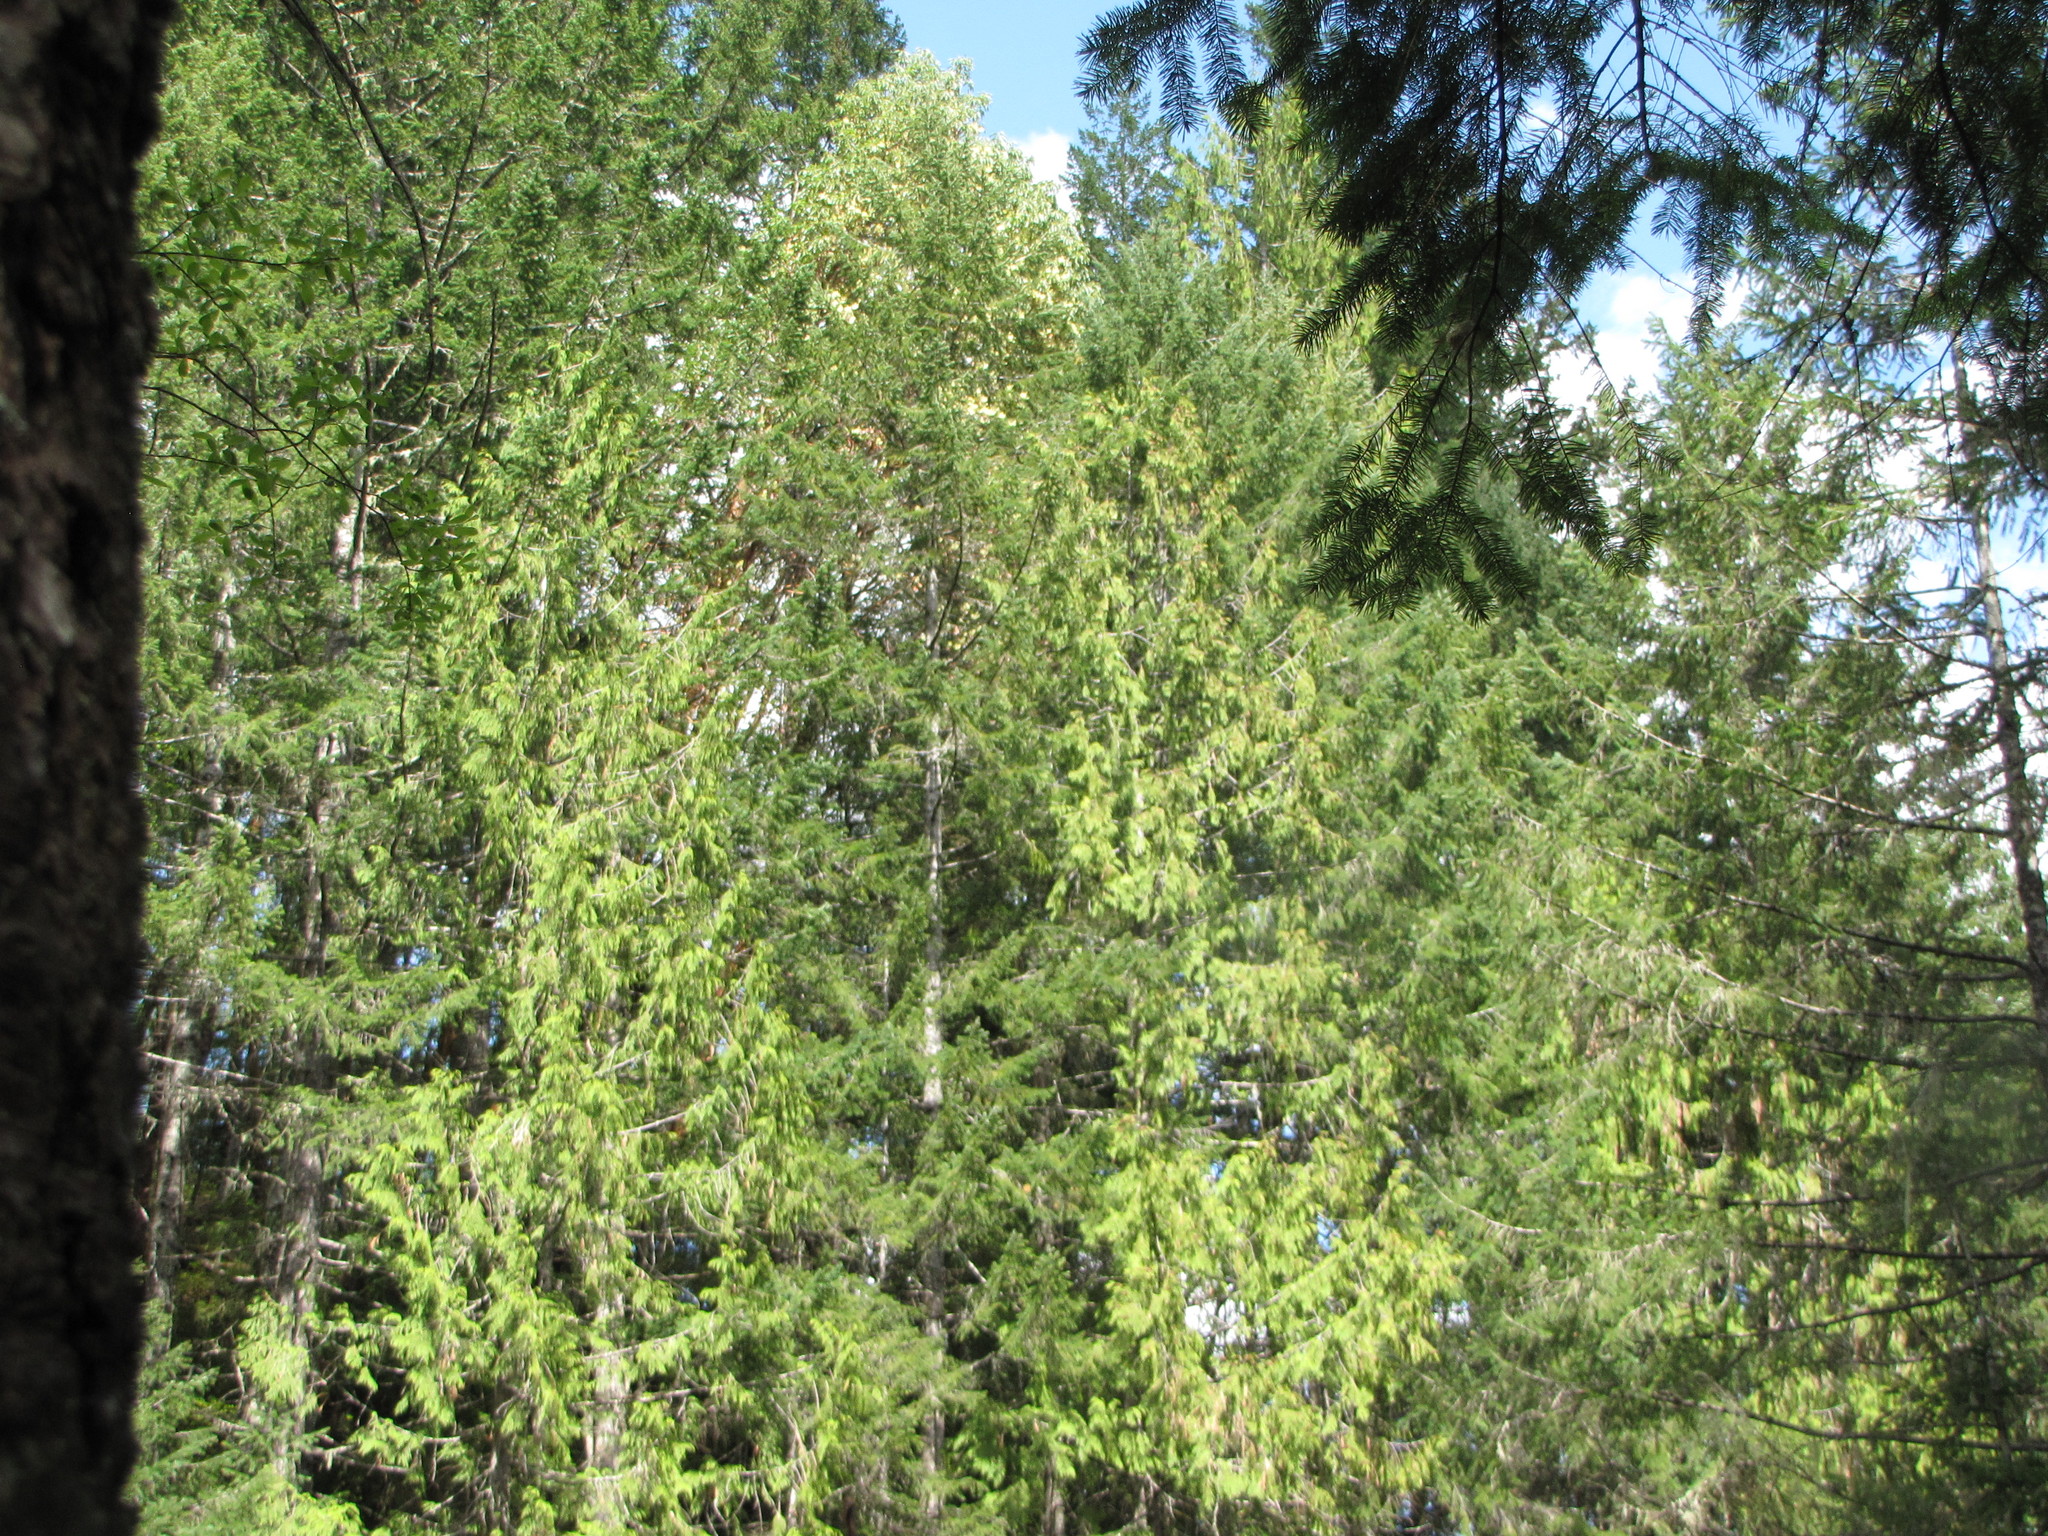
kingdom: Plantae
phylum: Tracheophyta
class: Pinopsida
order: Pinales
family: Cupressaceae
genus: Thuja
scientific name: Thuja plicata
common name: Western red-cedar
